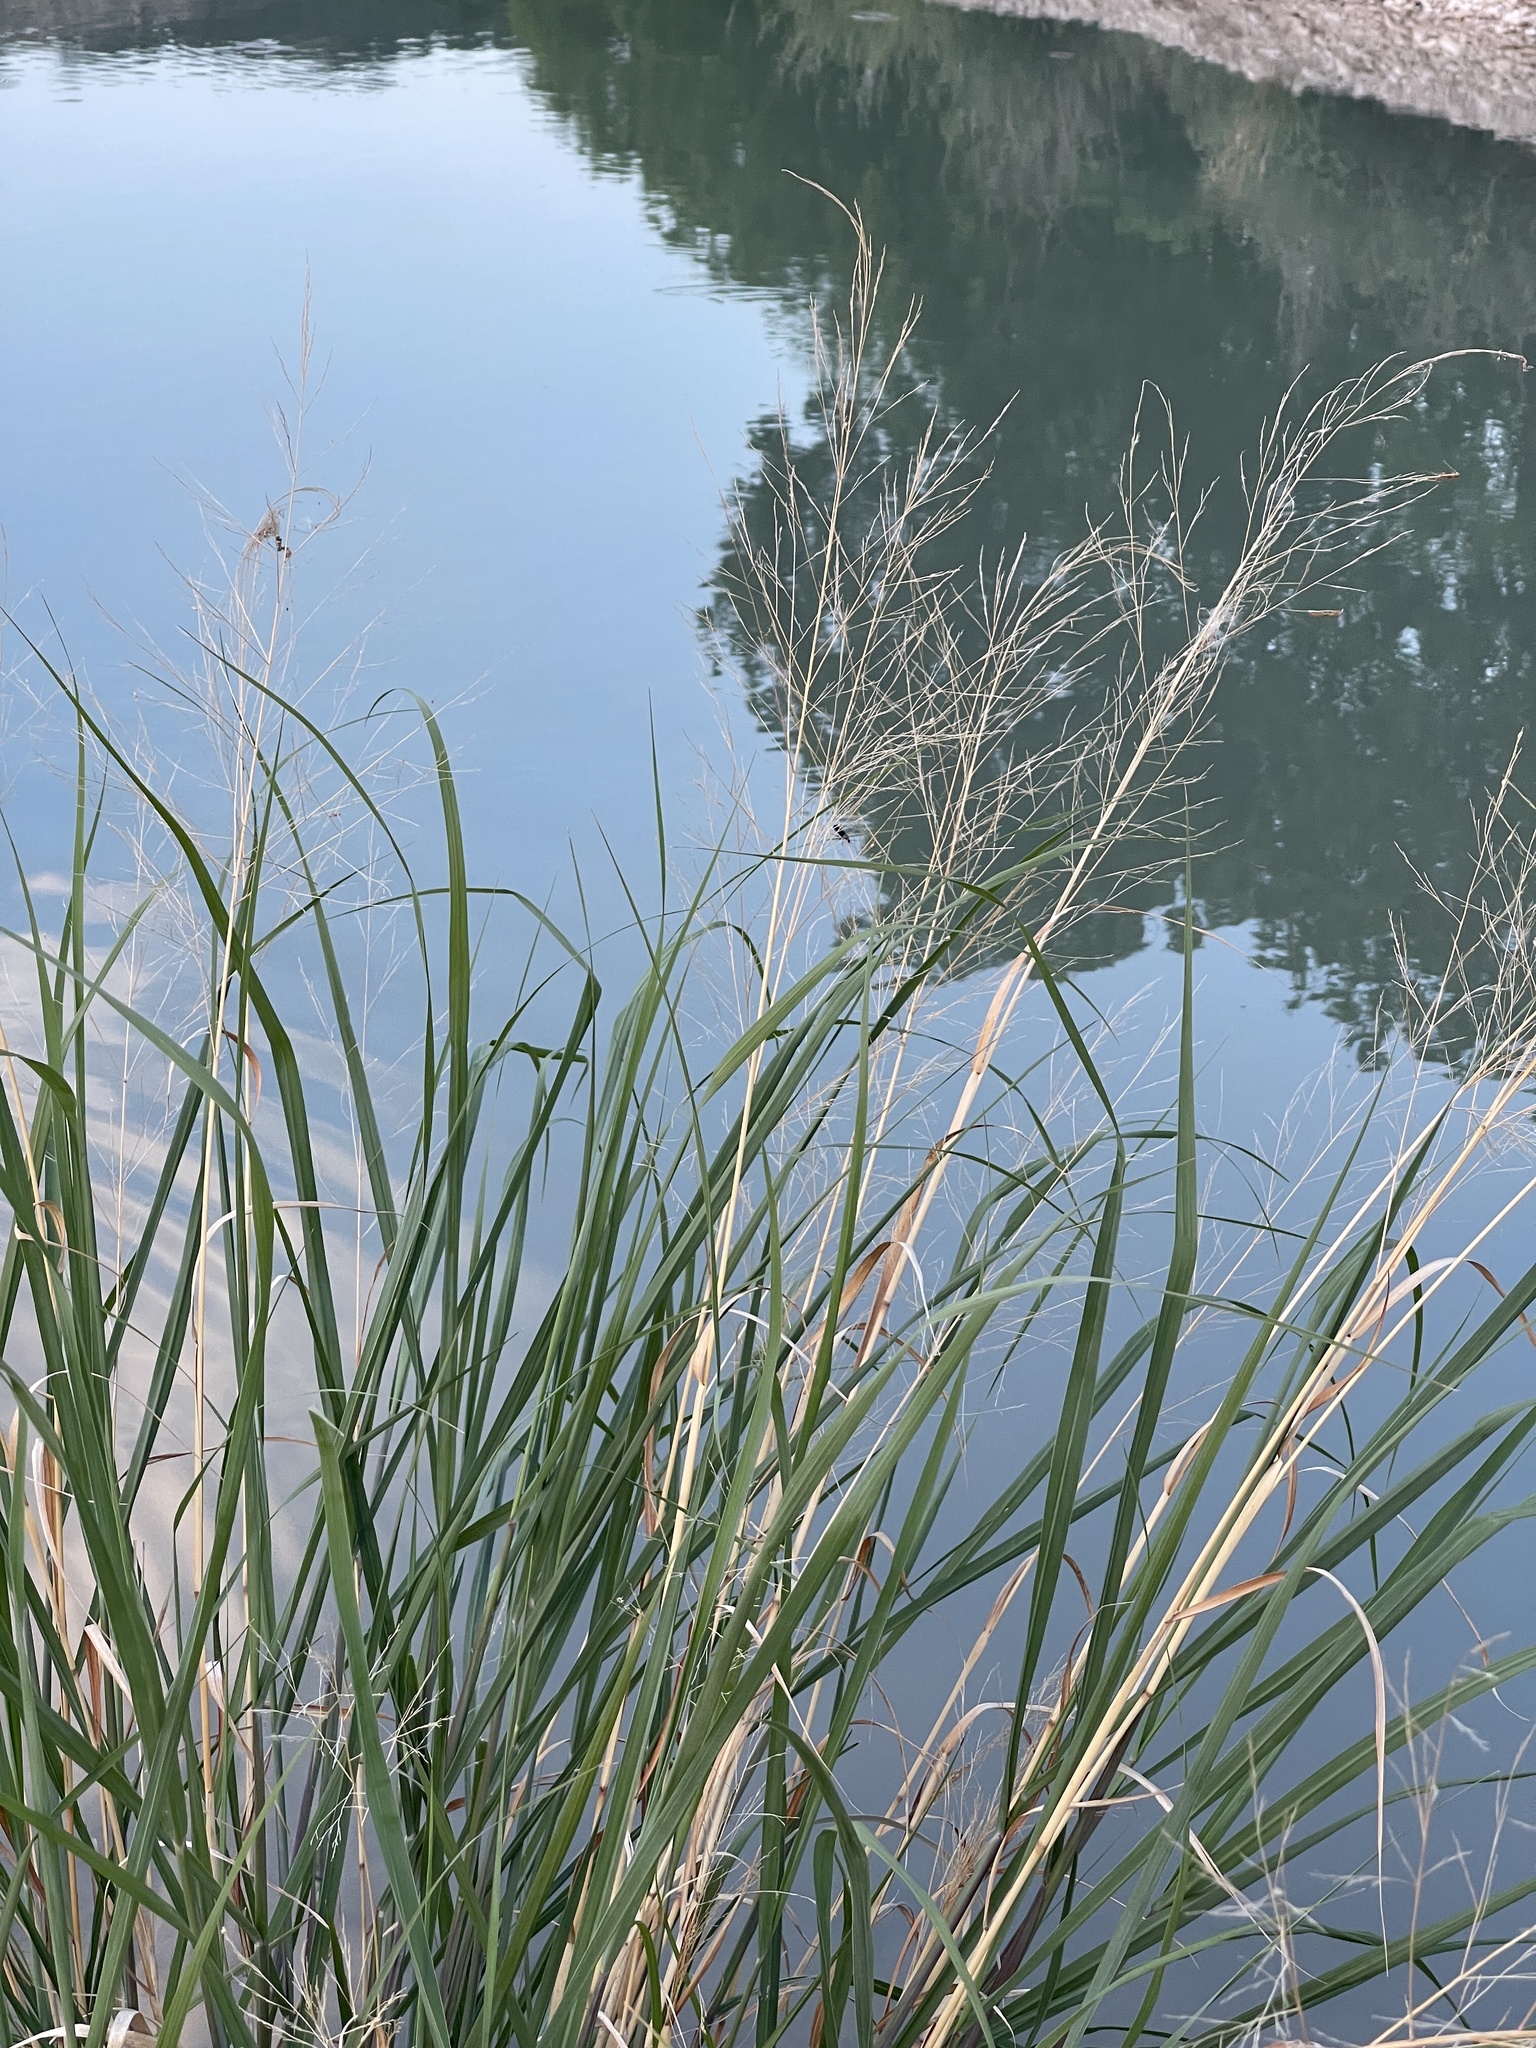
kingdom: Plantae
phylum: Tracheophyta
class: Liliopsida
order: Poales
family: Poaceae
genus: Panicum
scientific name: Panicum virgatum
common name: Switchgrass
